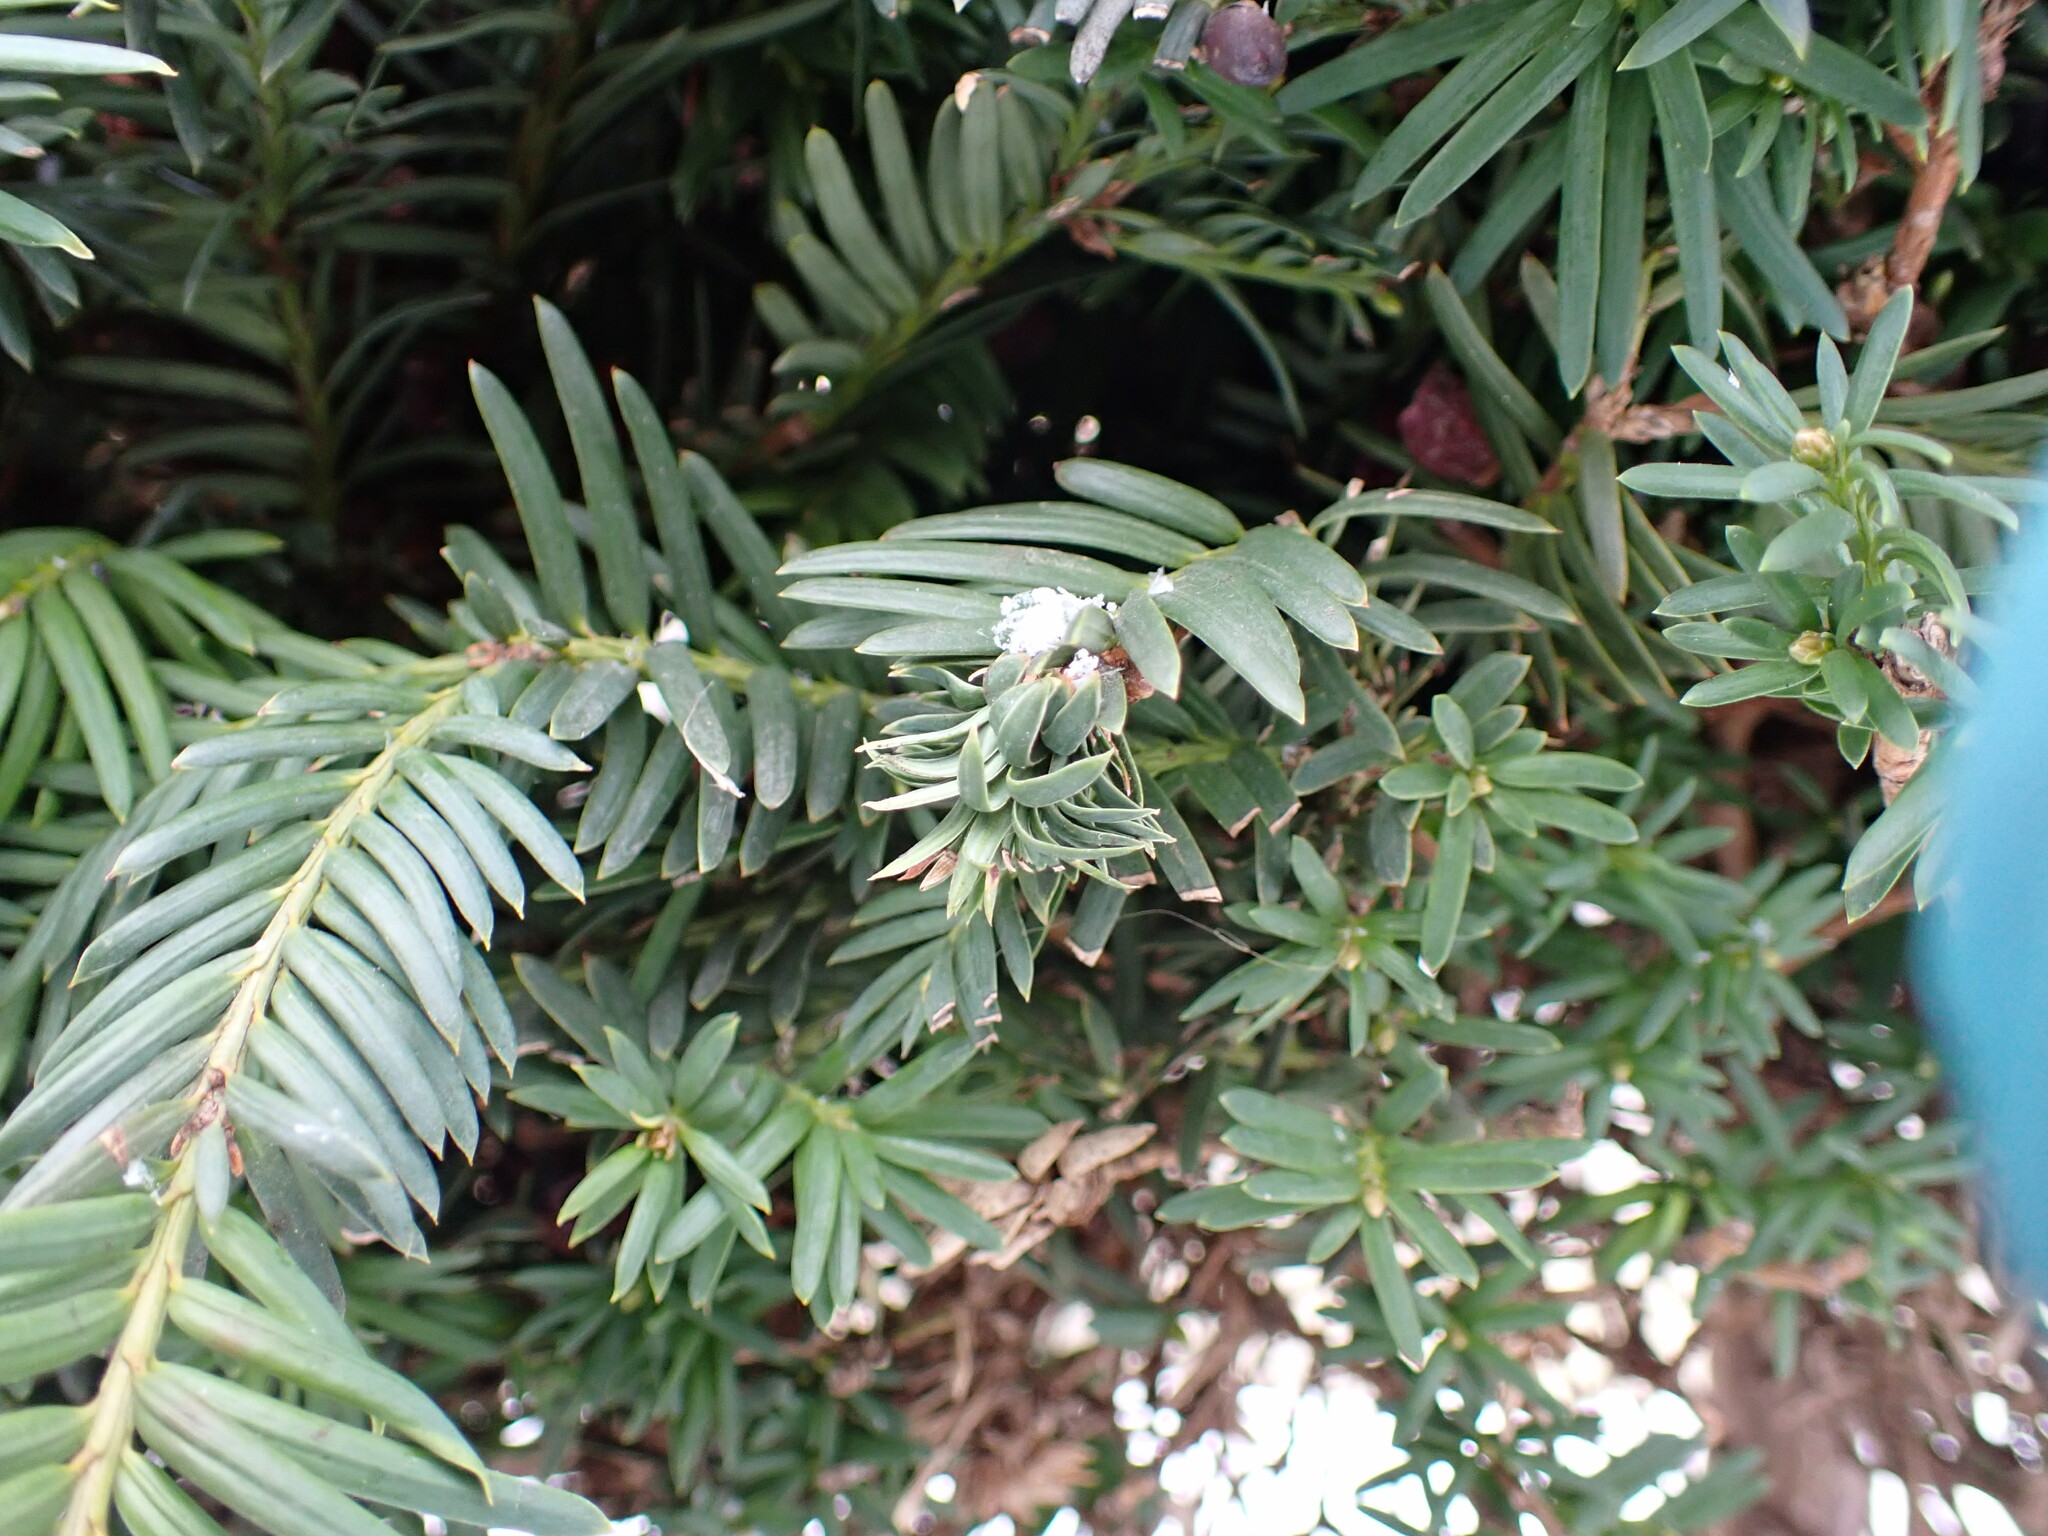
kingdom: Animalia
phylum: Arthropoda
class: Insecta
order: Diptera
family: Cecidomyiidae
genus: Taxomyia
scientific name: Taxomyia taxi
